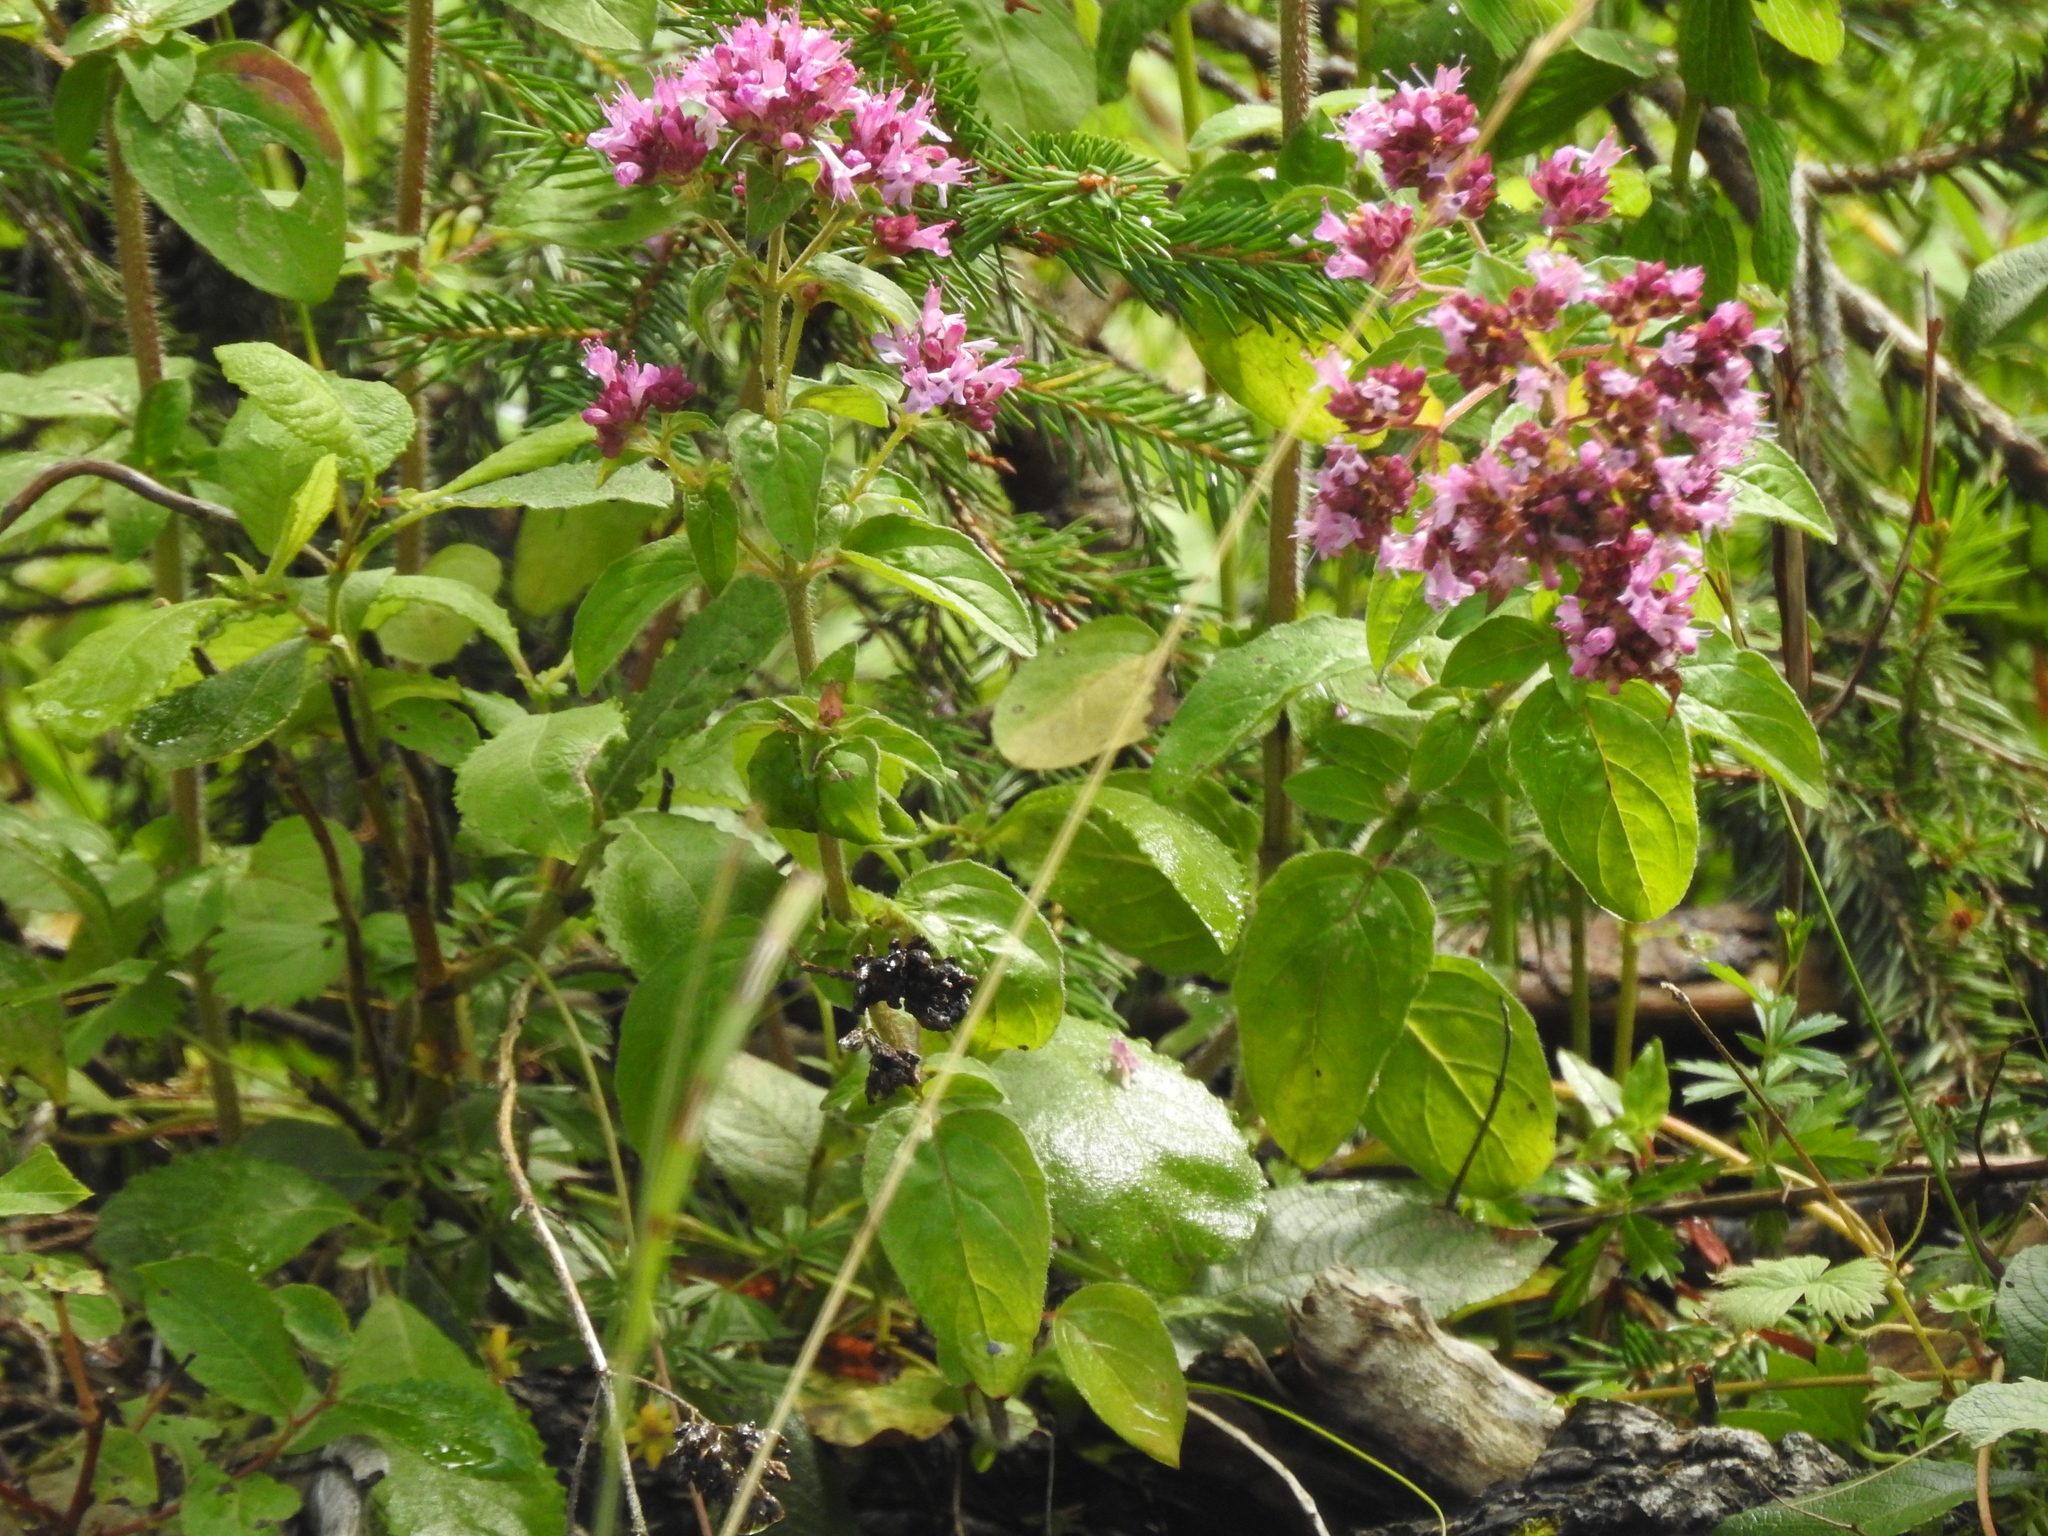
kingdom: Plantae
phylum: Tracheophyta
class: Magnoliopsida
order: Lamiales
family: Lamiaceae
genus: Origanum
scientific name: Origanum vulgare
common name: Wild marjoram
